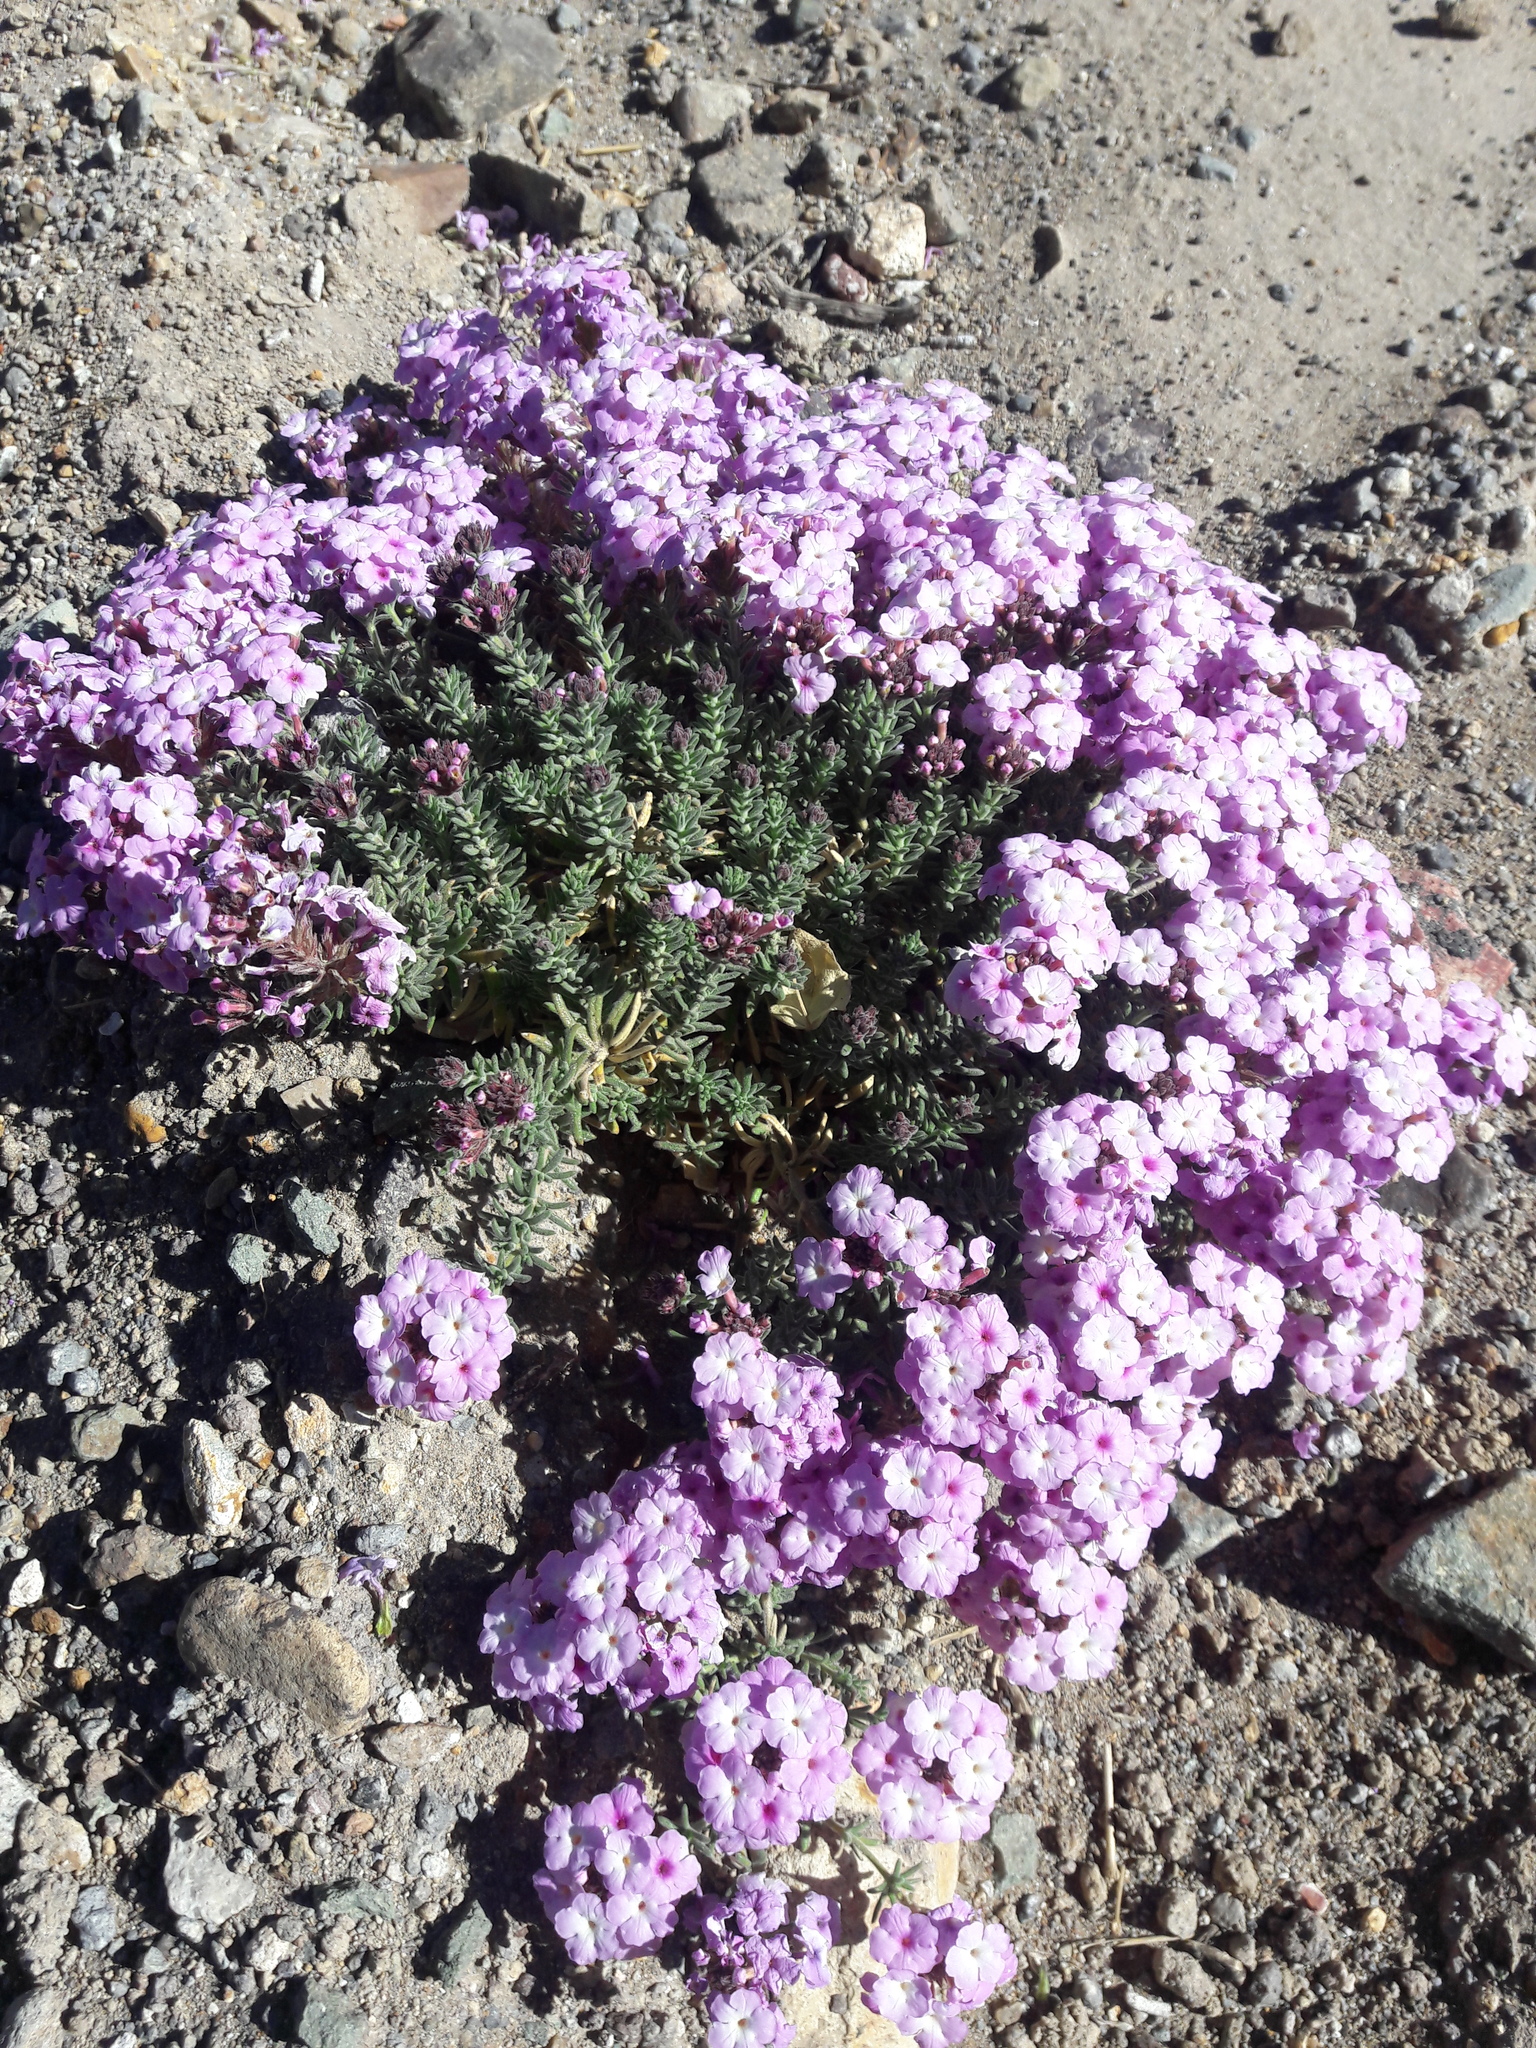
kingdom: Plantae
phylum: Tracheophyta
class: Magnoliopsida
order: Lamiales
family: Verbenaceae
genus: Verbena
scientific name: Verbena gynobasis
